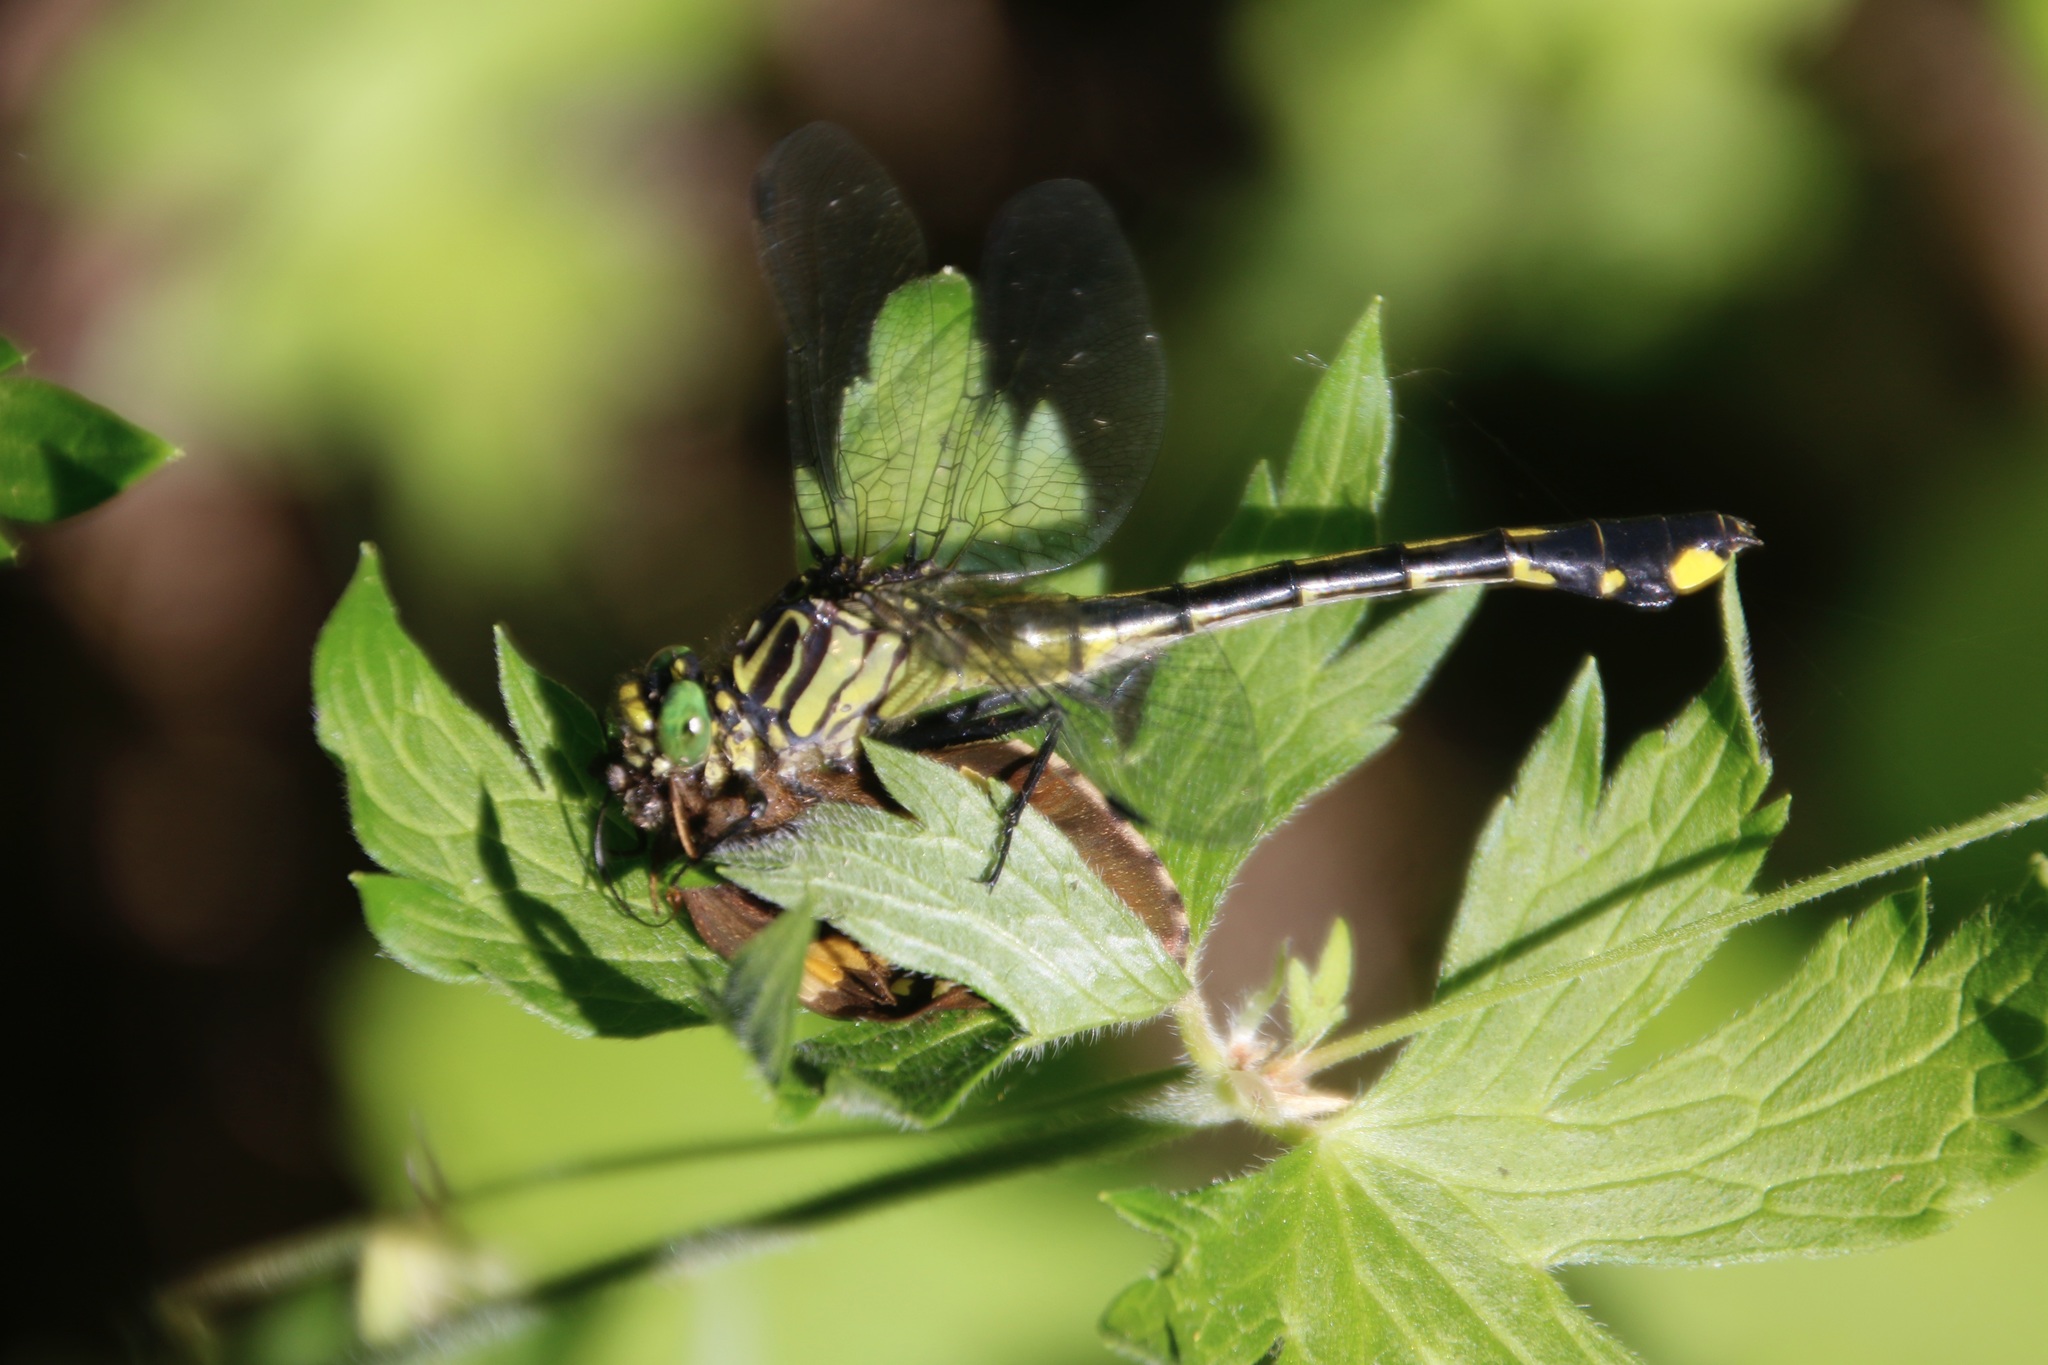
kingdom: Animalia
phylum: Arthropoda
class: Insecta
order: Odonata
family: Gomphidae
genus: Gomphurus
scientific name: Gomphurus vastus
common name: Cobra clubtail
